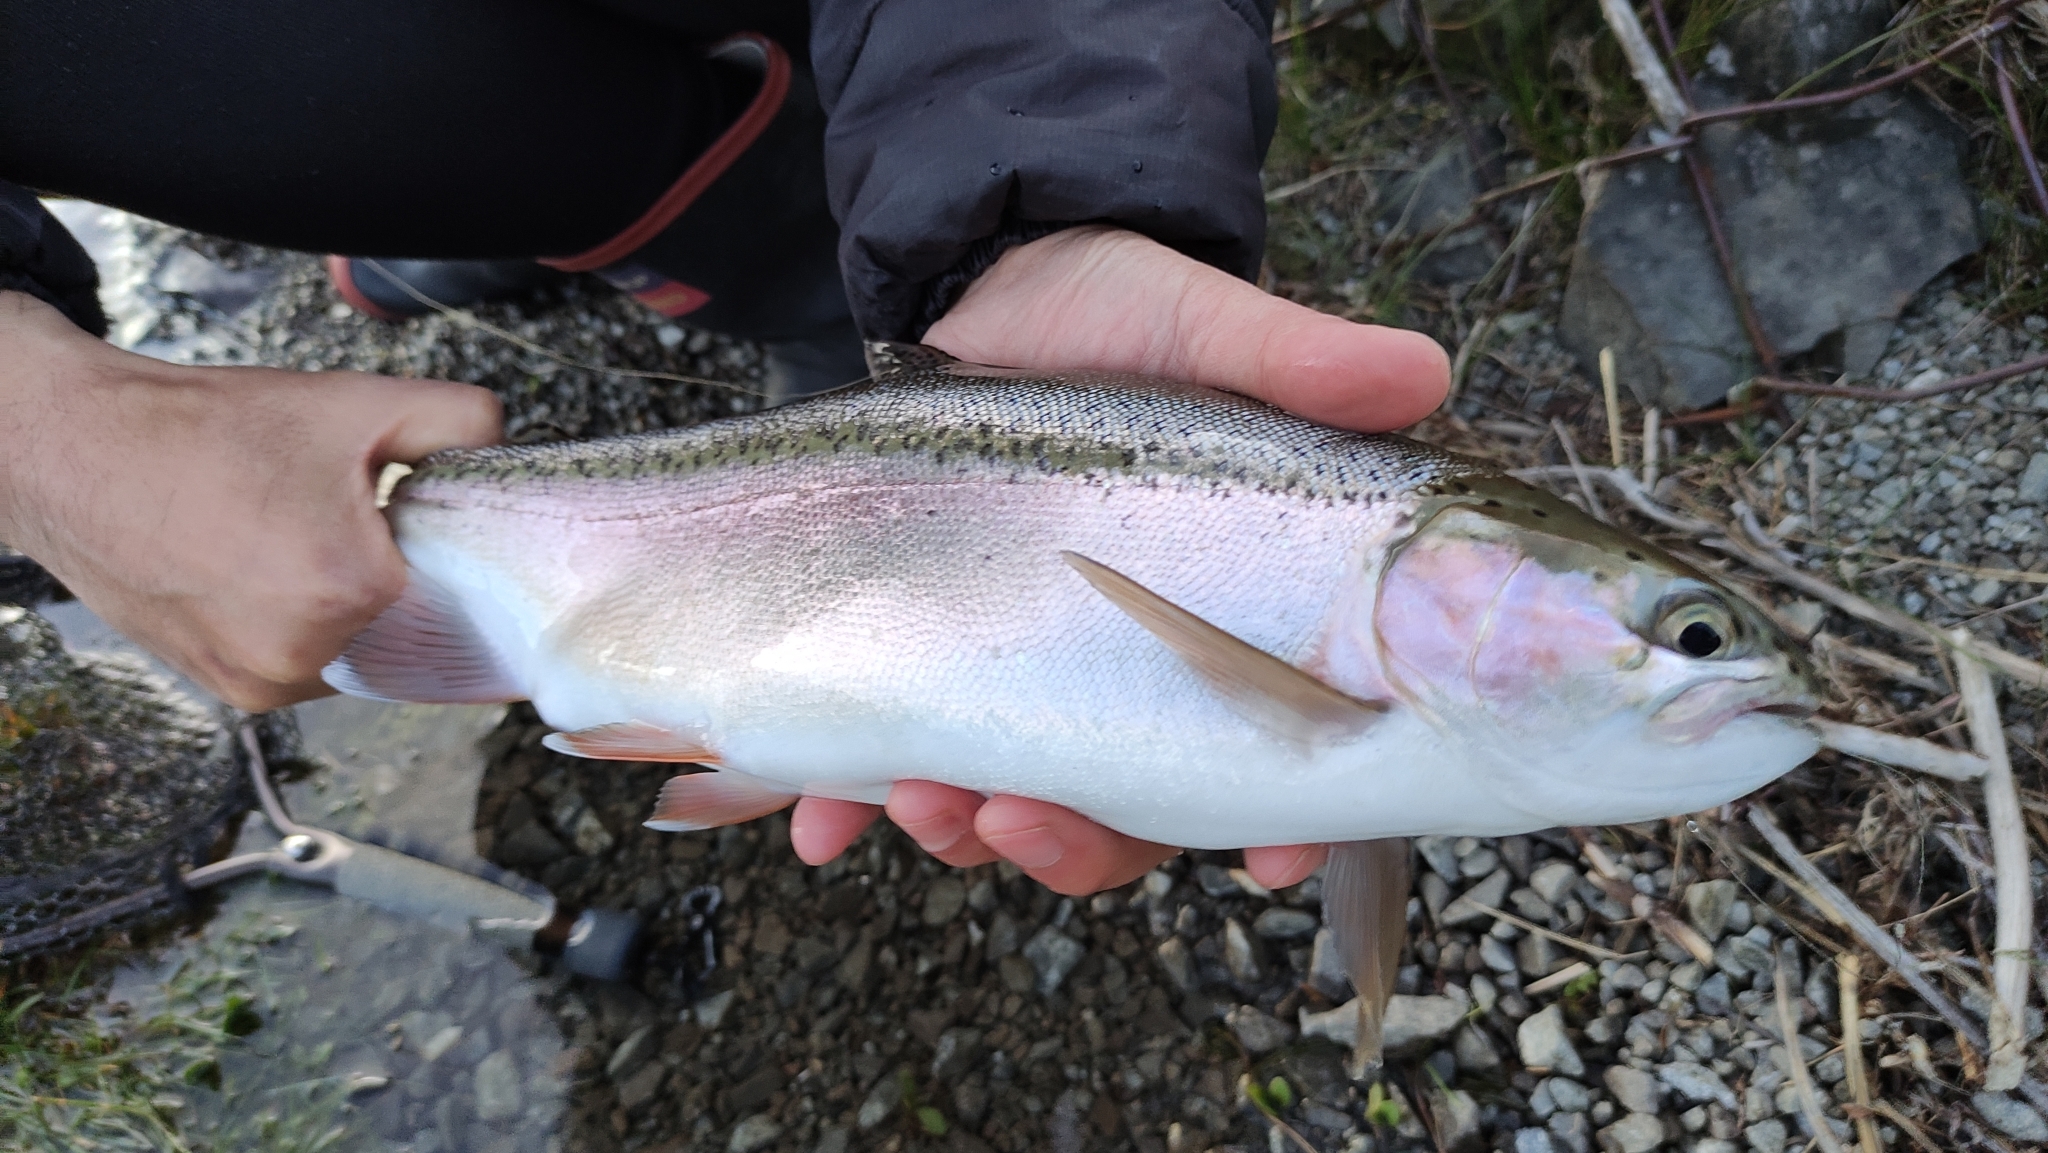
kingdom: Animalia
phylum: Chordata
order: Salmoniformes
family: Salmonidae
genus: Oncorhynchus
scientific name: Oncorhynchus mykiss
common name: Rainbow trout
